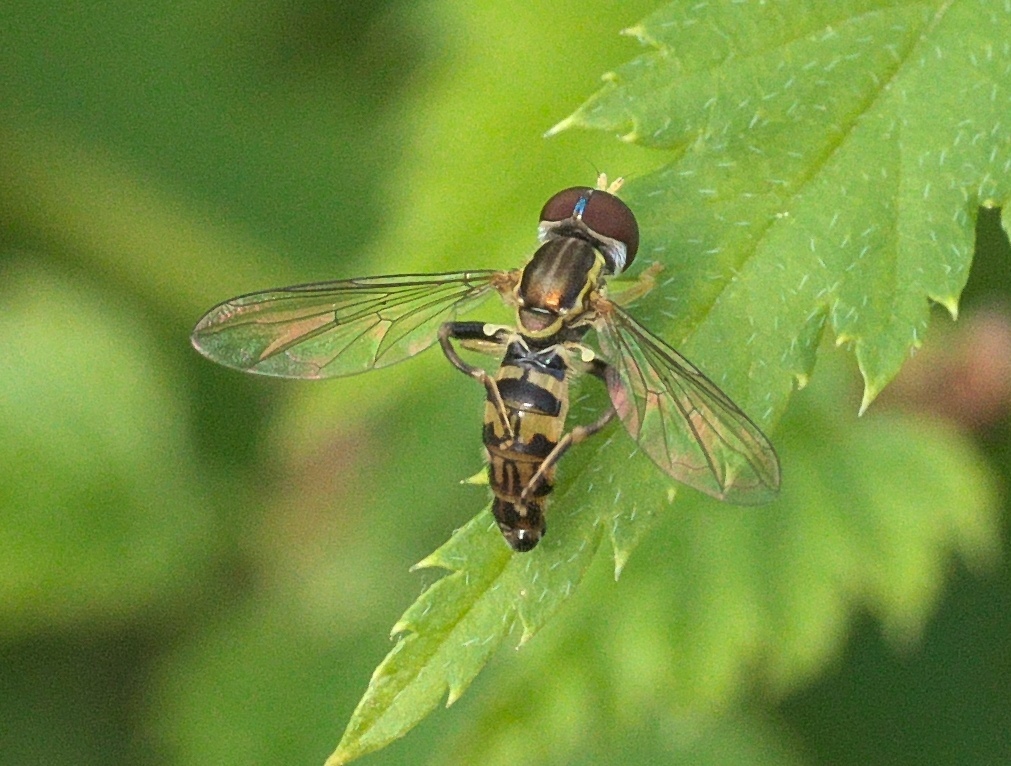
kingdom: Animalia
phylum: Arthropoda
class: Insecta
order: Diptera
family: Syrphidae
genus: Toxomerus
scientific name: Toxomerus geminatus
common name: Eastern calligrapher
